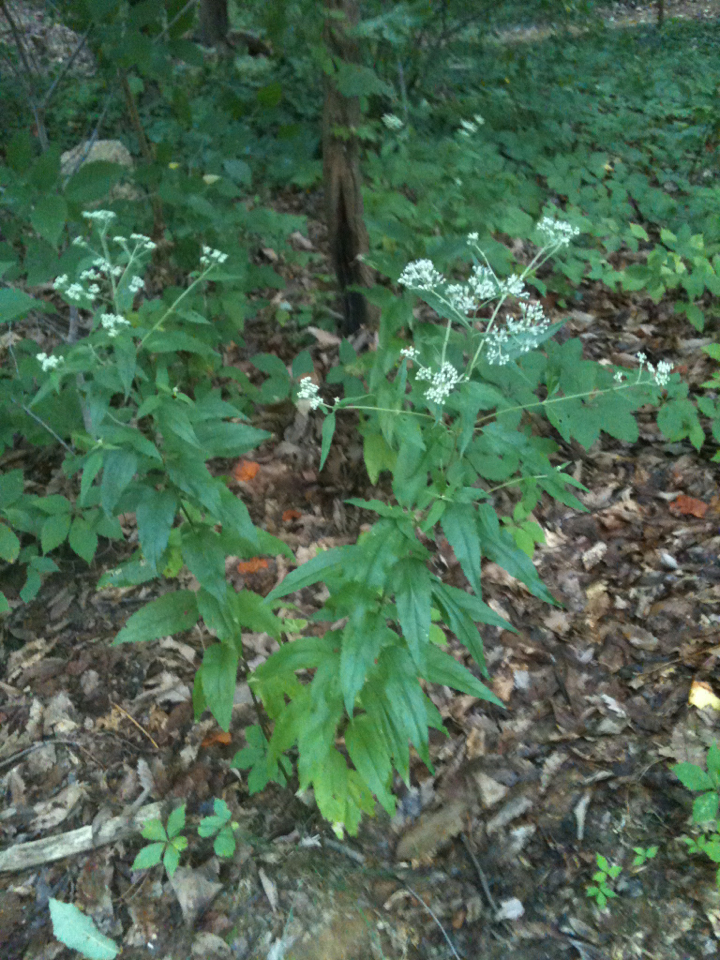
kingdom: Plantae
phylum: Tracheophyta
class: Magnoliopsida
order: Asterales
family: Asteraceae
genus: Eupatorium
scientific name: Eupatorium serotinum
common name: Late boneset
